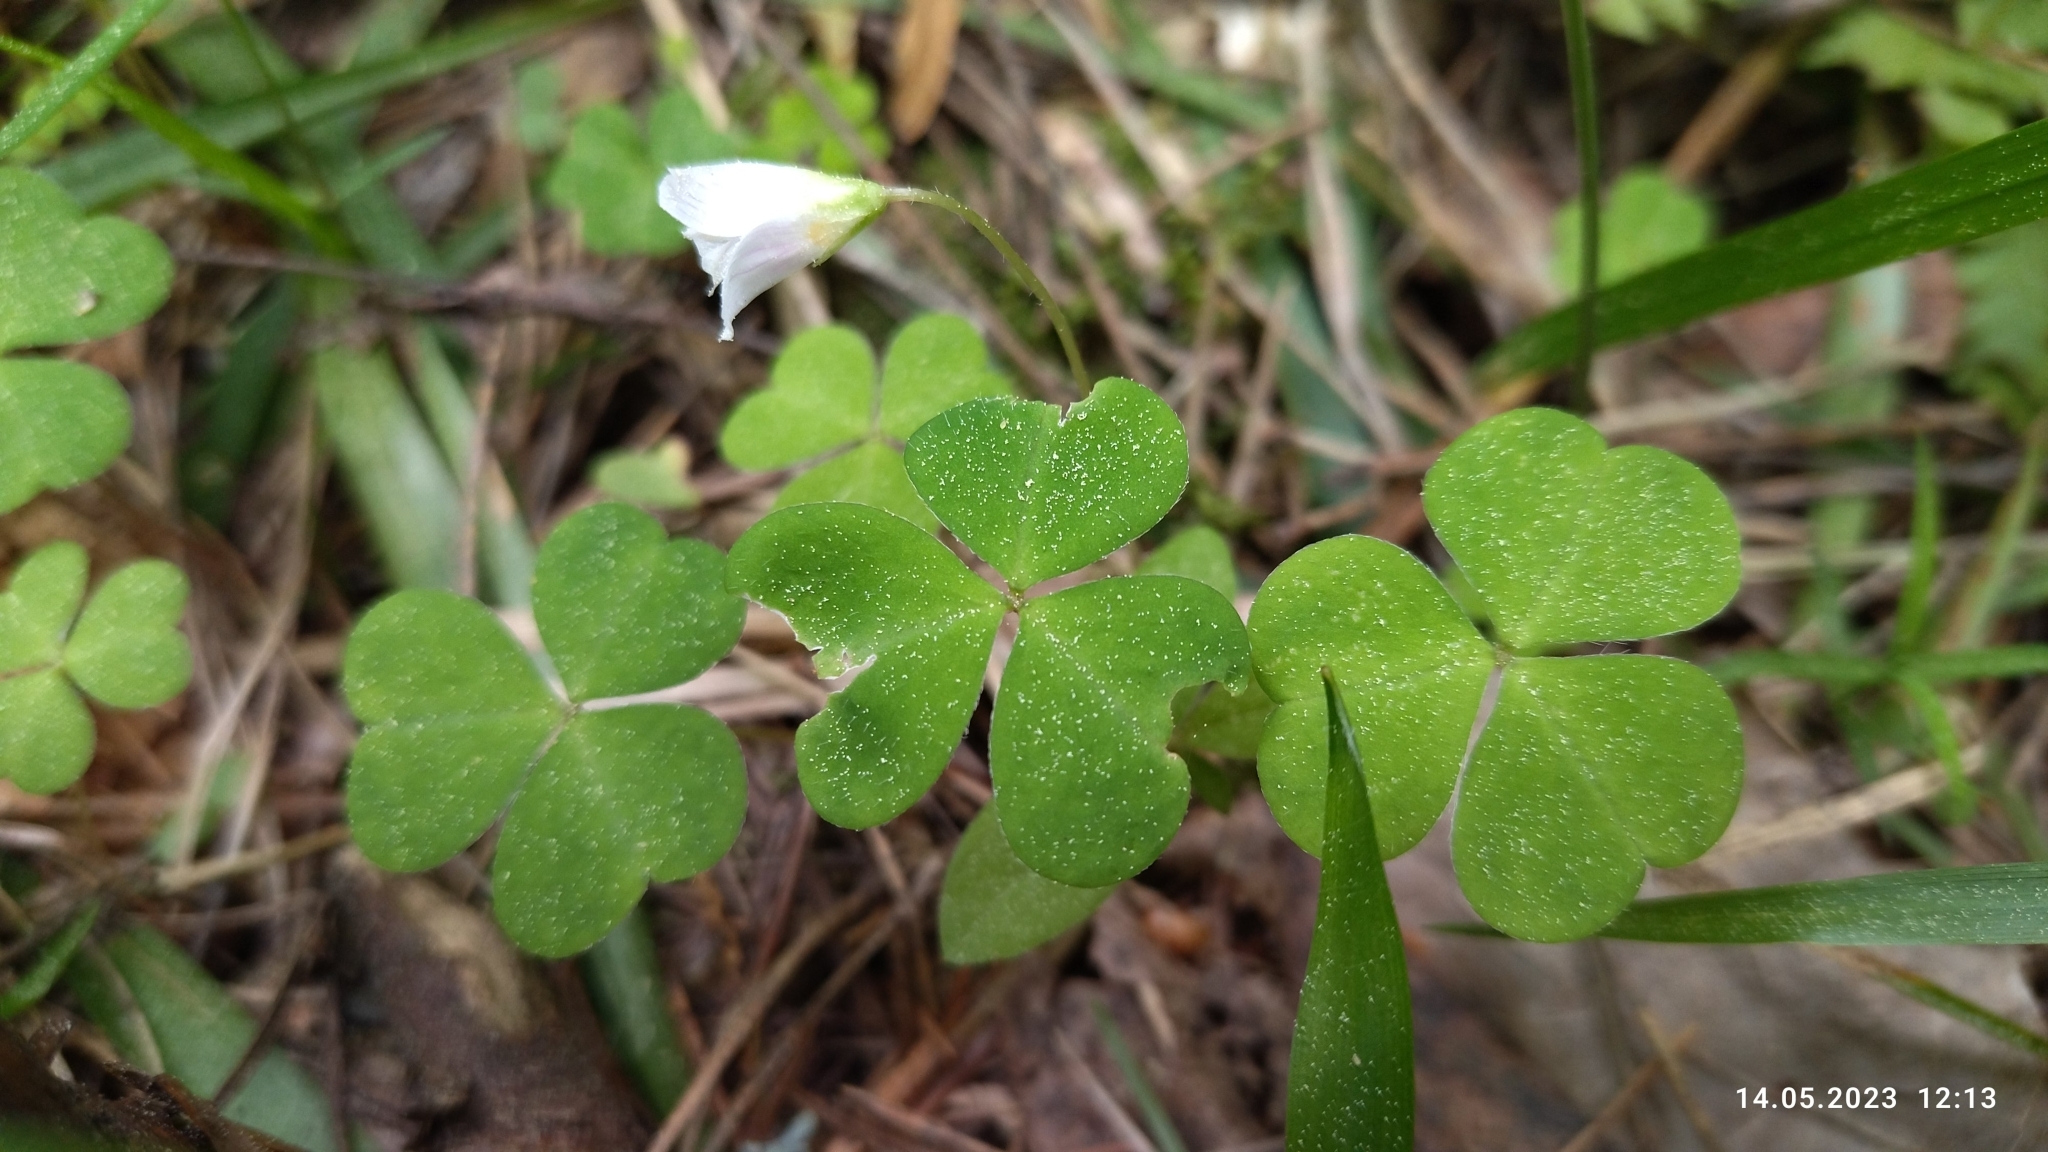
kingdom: Plantae
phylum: Tracheophyta
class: Magnoliopsida
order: Oxalidales
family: Oxalidaceae
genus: Oxalis
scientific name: Oxalis acetosella
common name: Wood-sorrel
